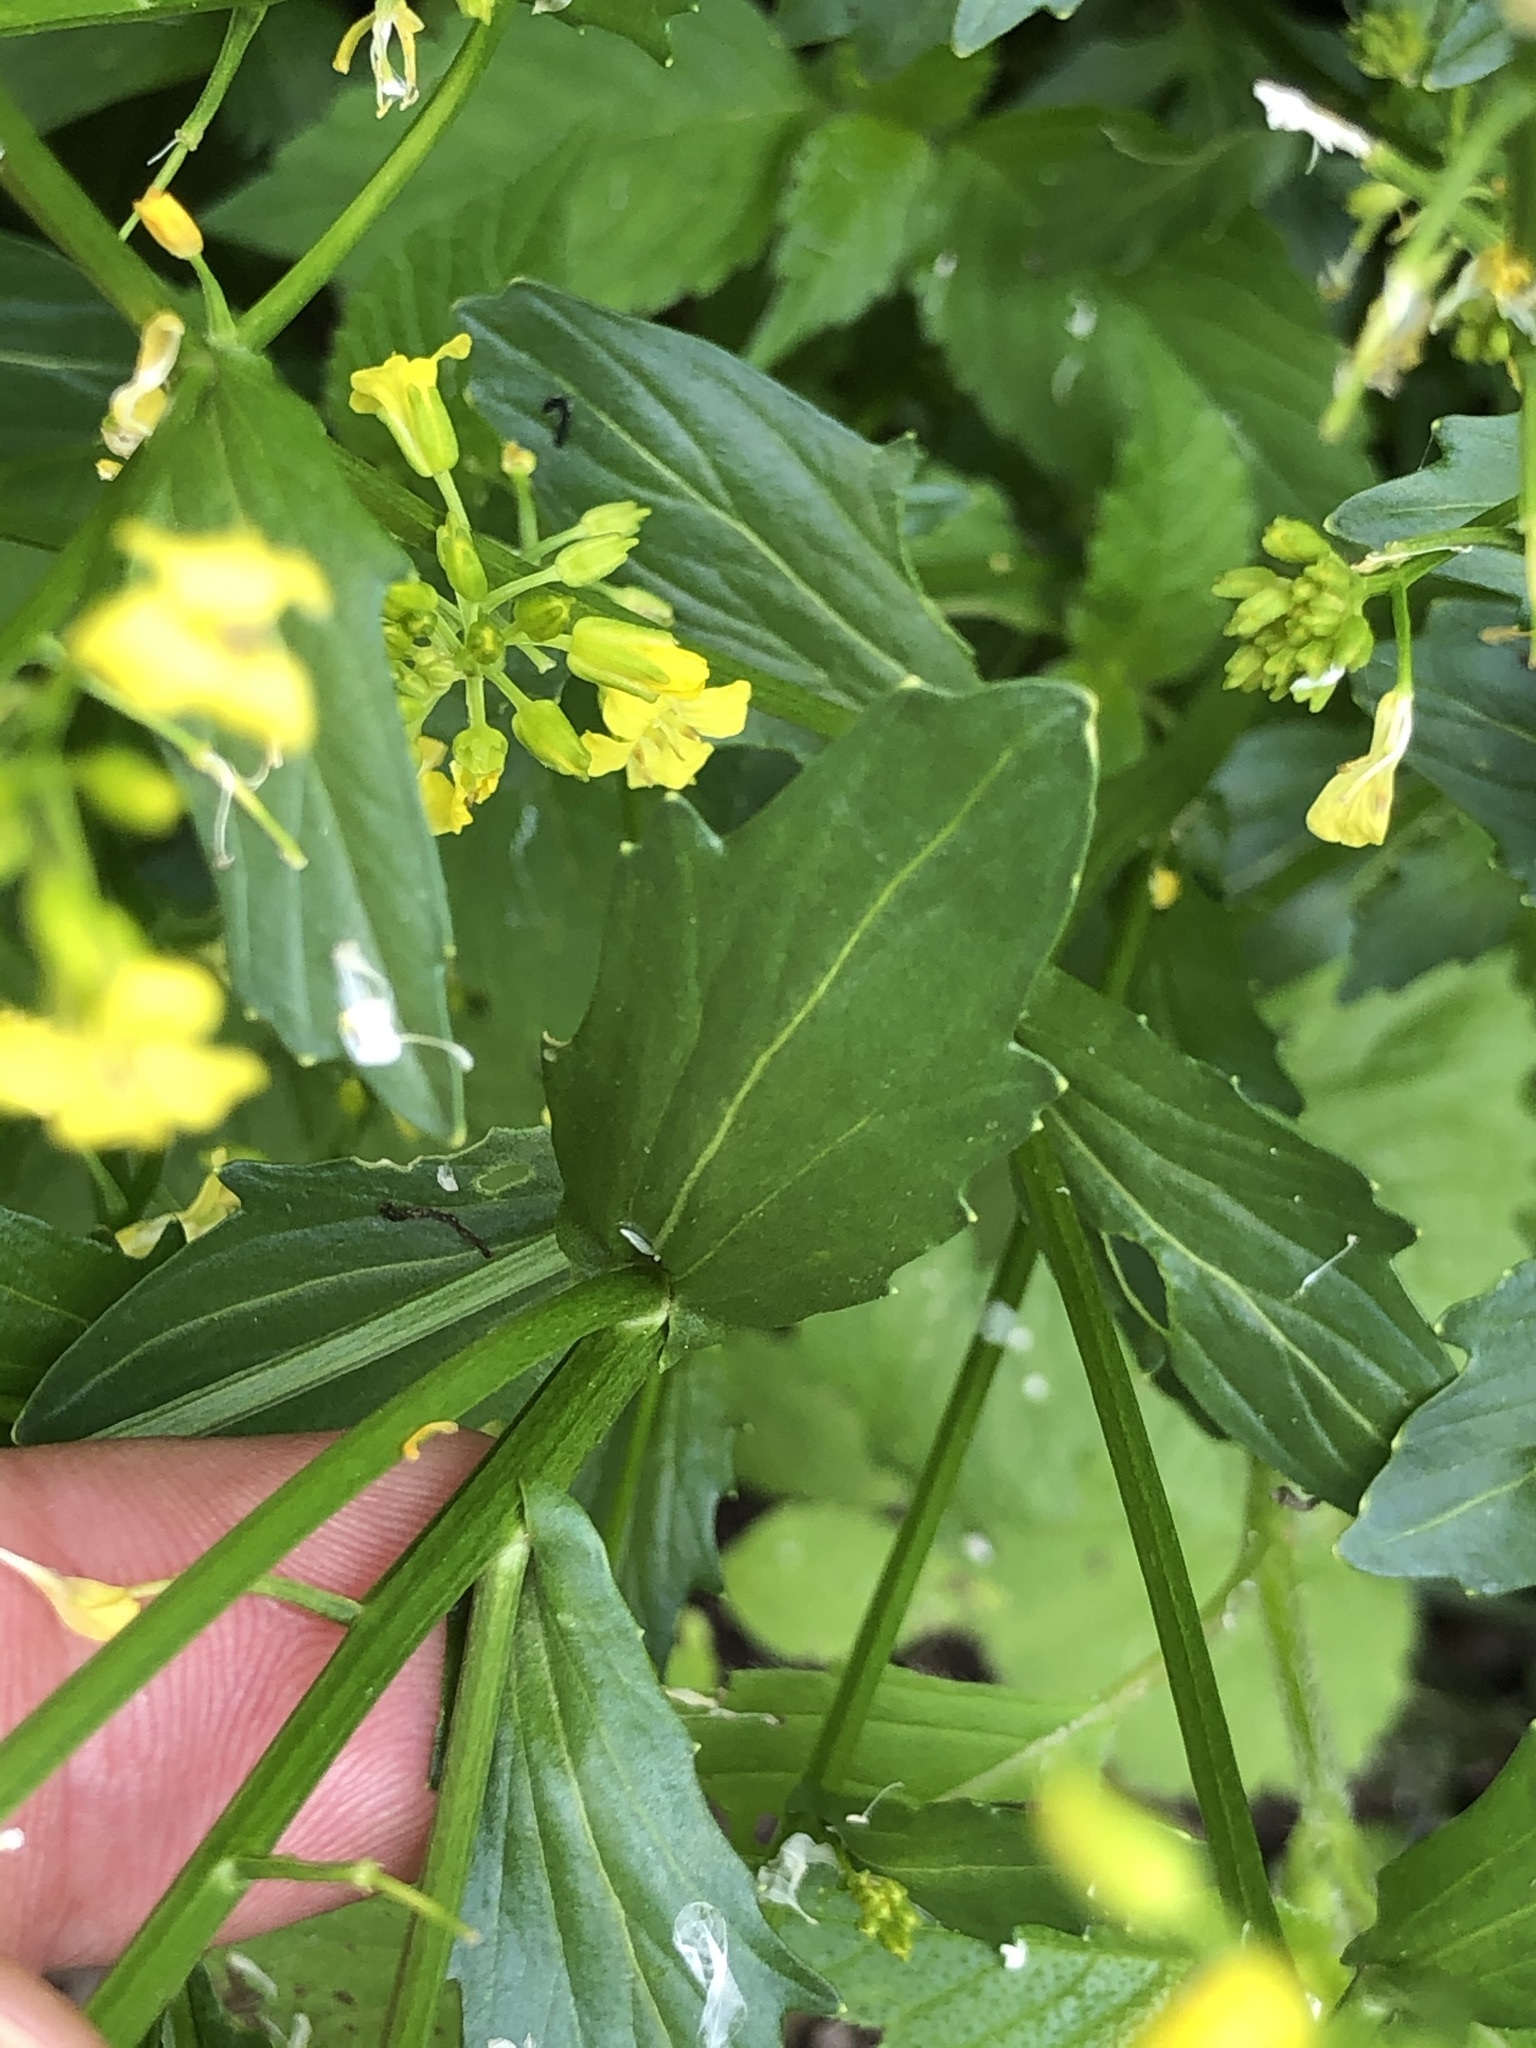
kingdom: Plantae
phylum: Tracheophyta
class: Magnoliopsida
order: Brassicales
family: Brassicaceae
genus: Barbarea
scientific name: Barbarea vulgaris
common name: Cressy-greens
